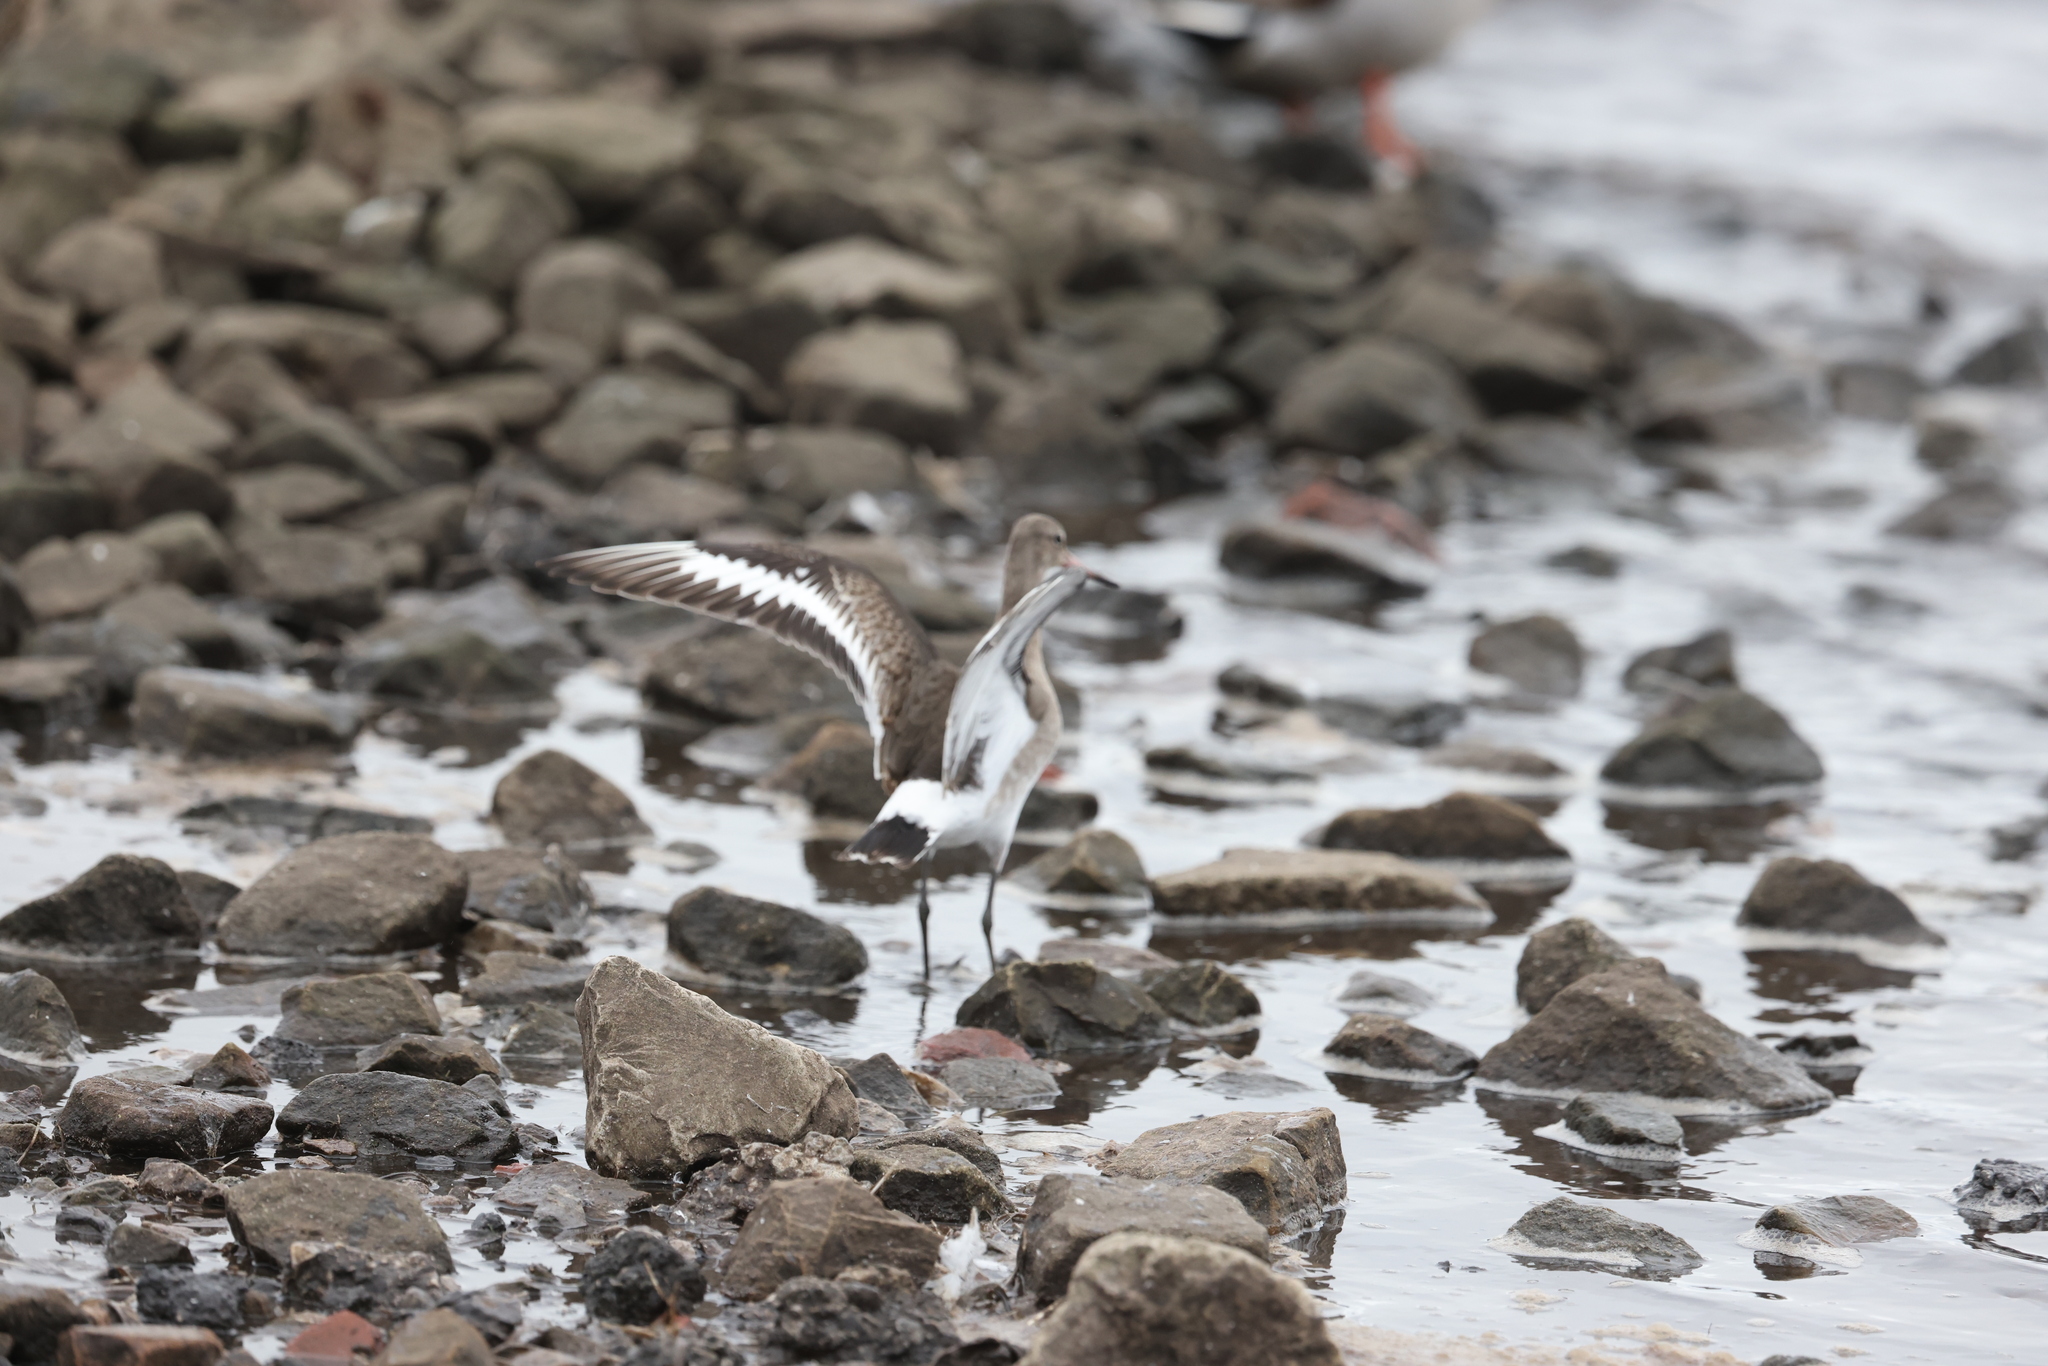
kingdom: Animalia
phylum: Chordata
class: Aves
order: Charadriiformes
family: Scolopacidae
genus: Limosa
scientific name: Limosa limosa
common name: Black-tailed godwit
